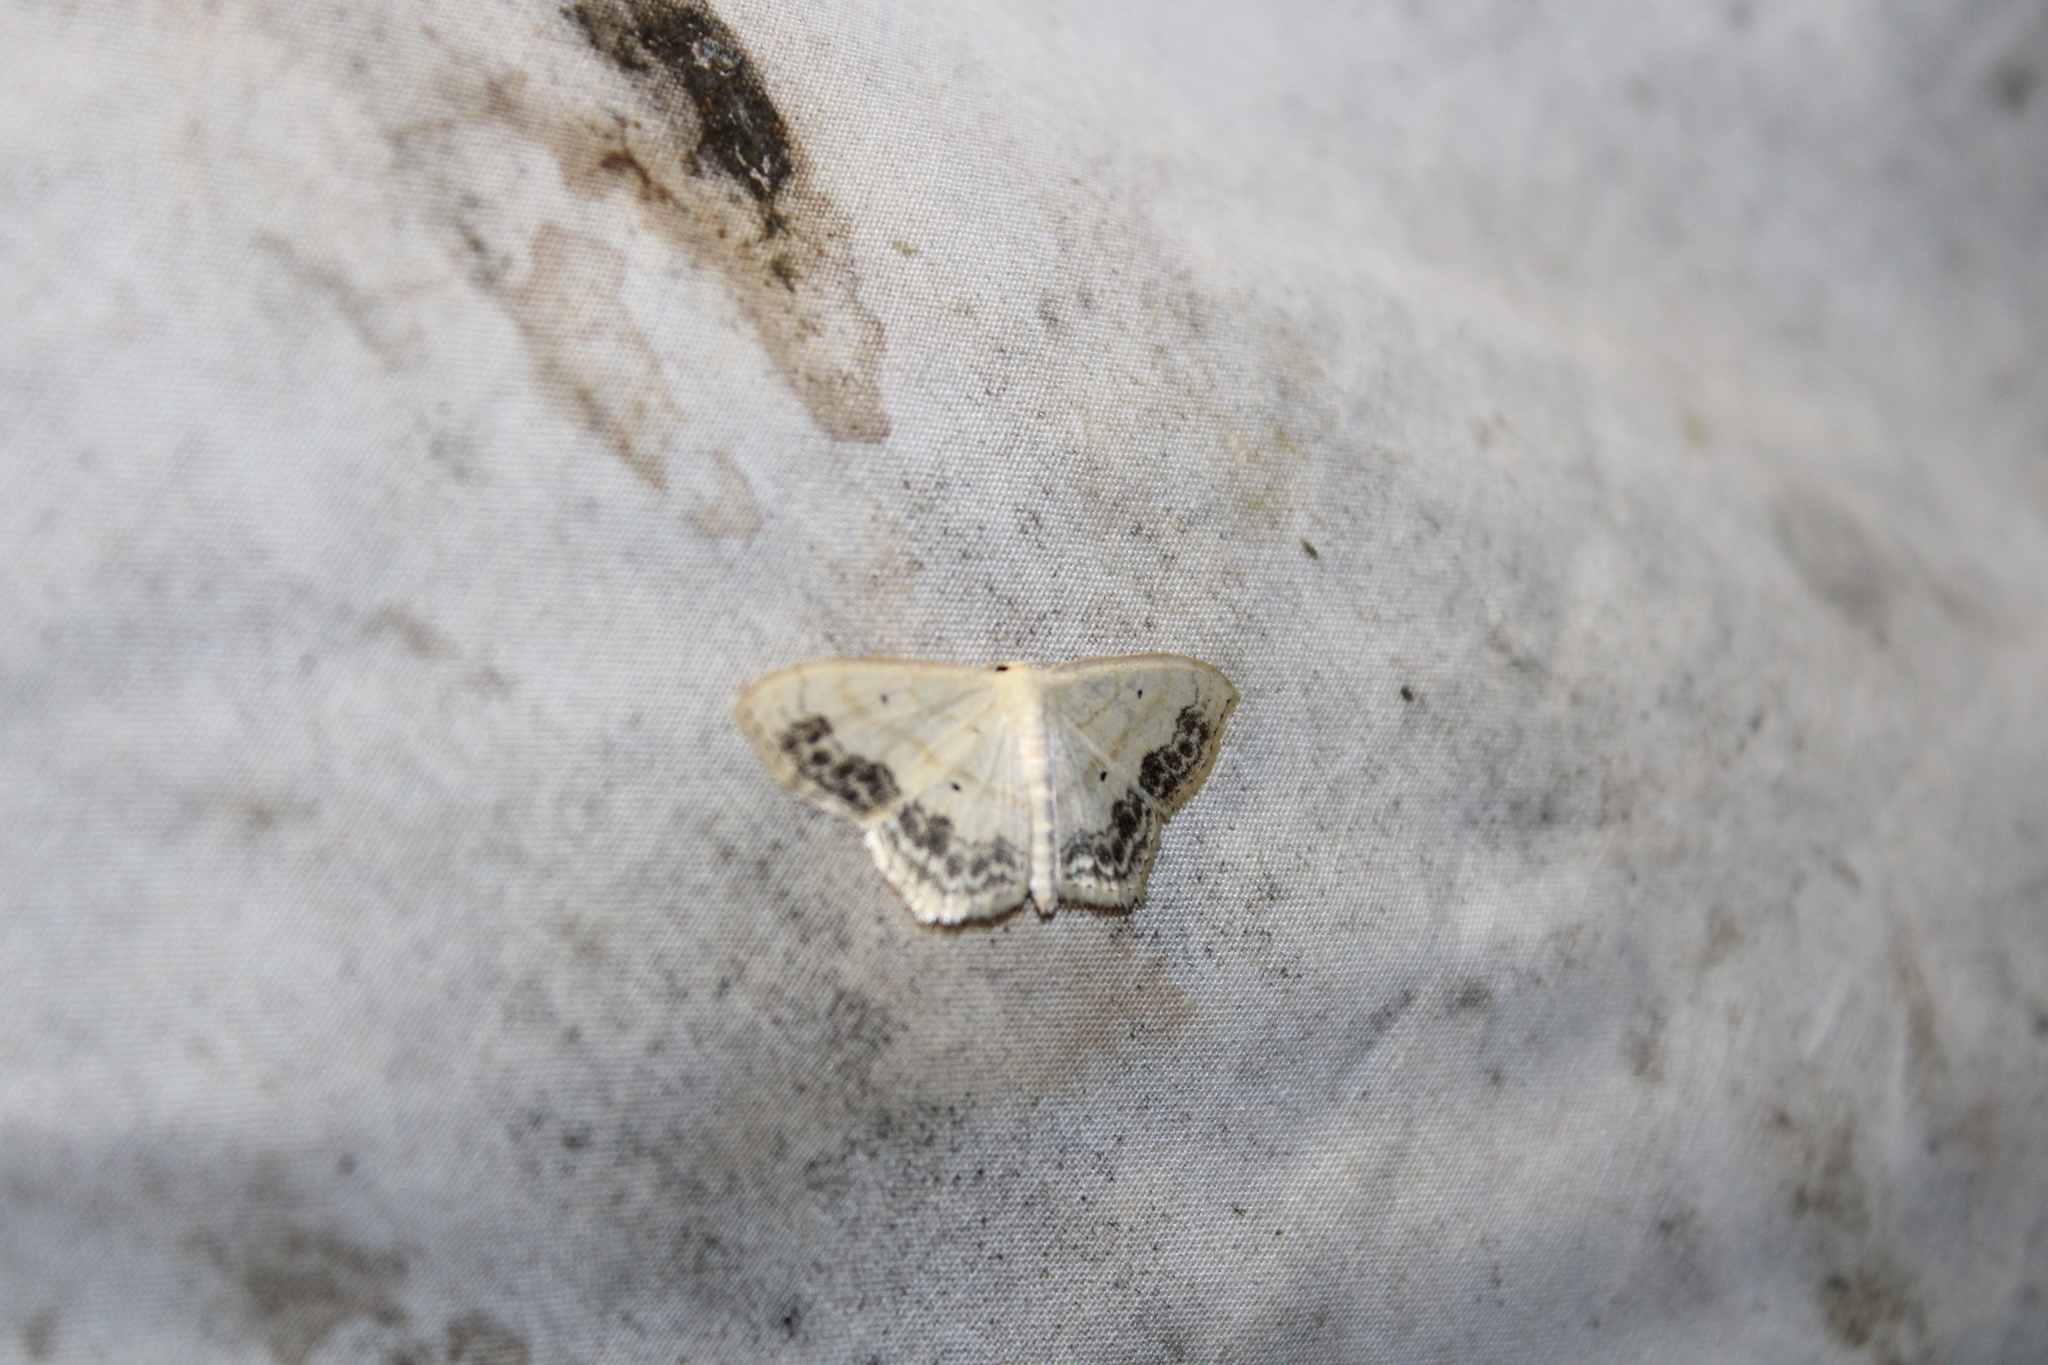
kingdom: Animalia
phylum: Arthropoda
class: Insecta
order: Lepidoptera
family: Geometridae
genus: Scopula
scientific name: Scopula limboundata
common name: Large lace border
